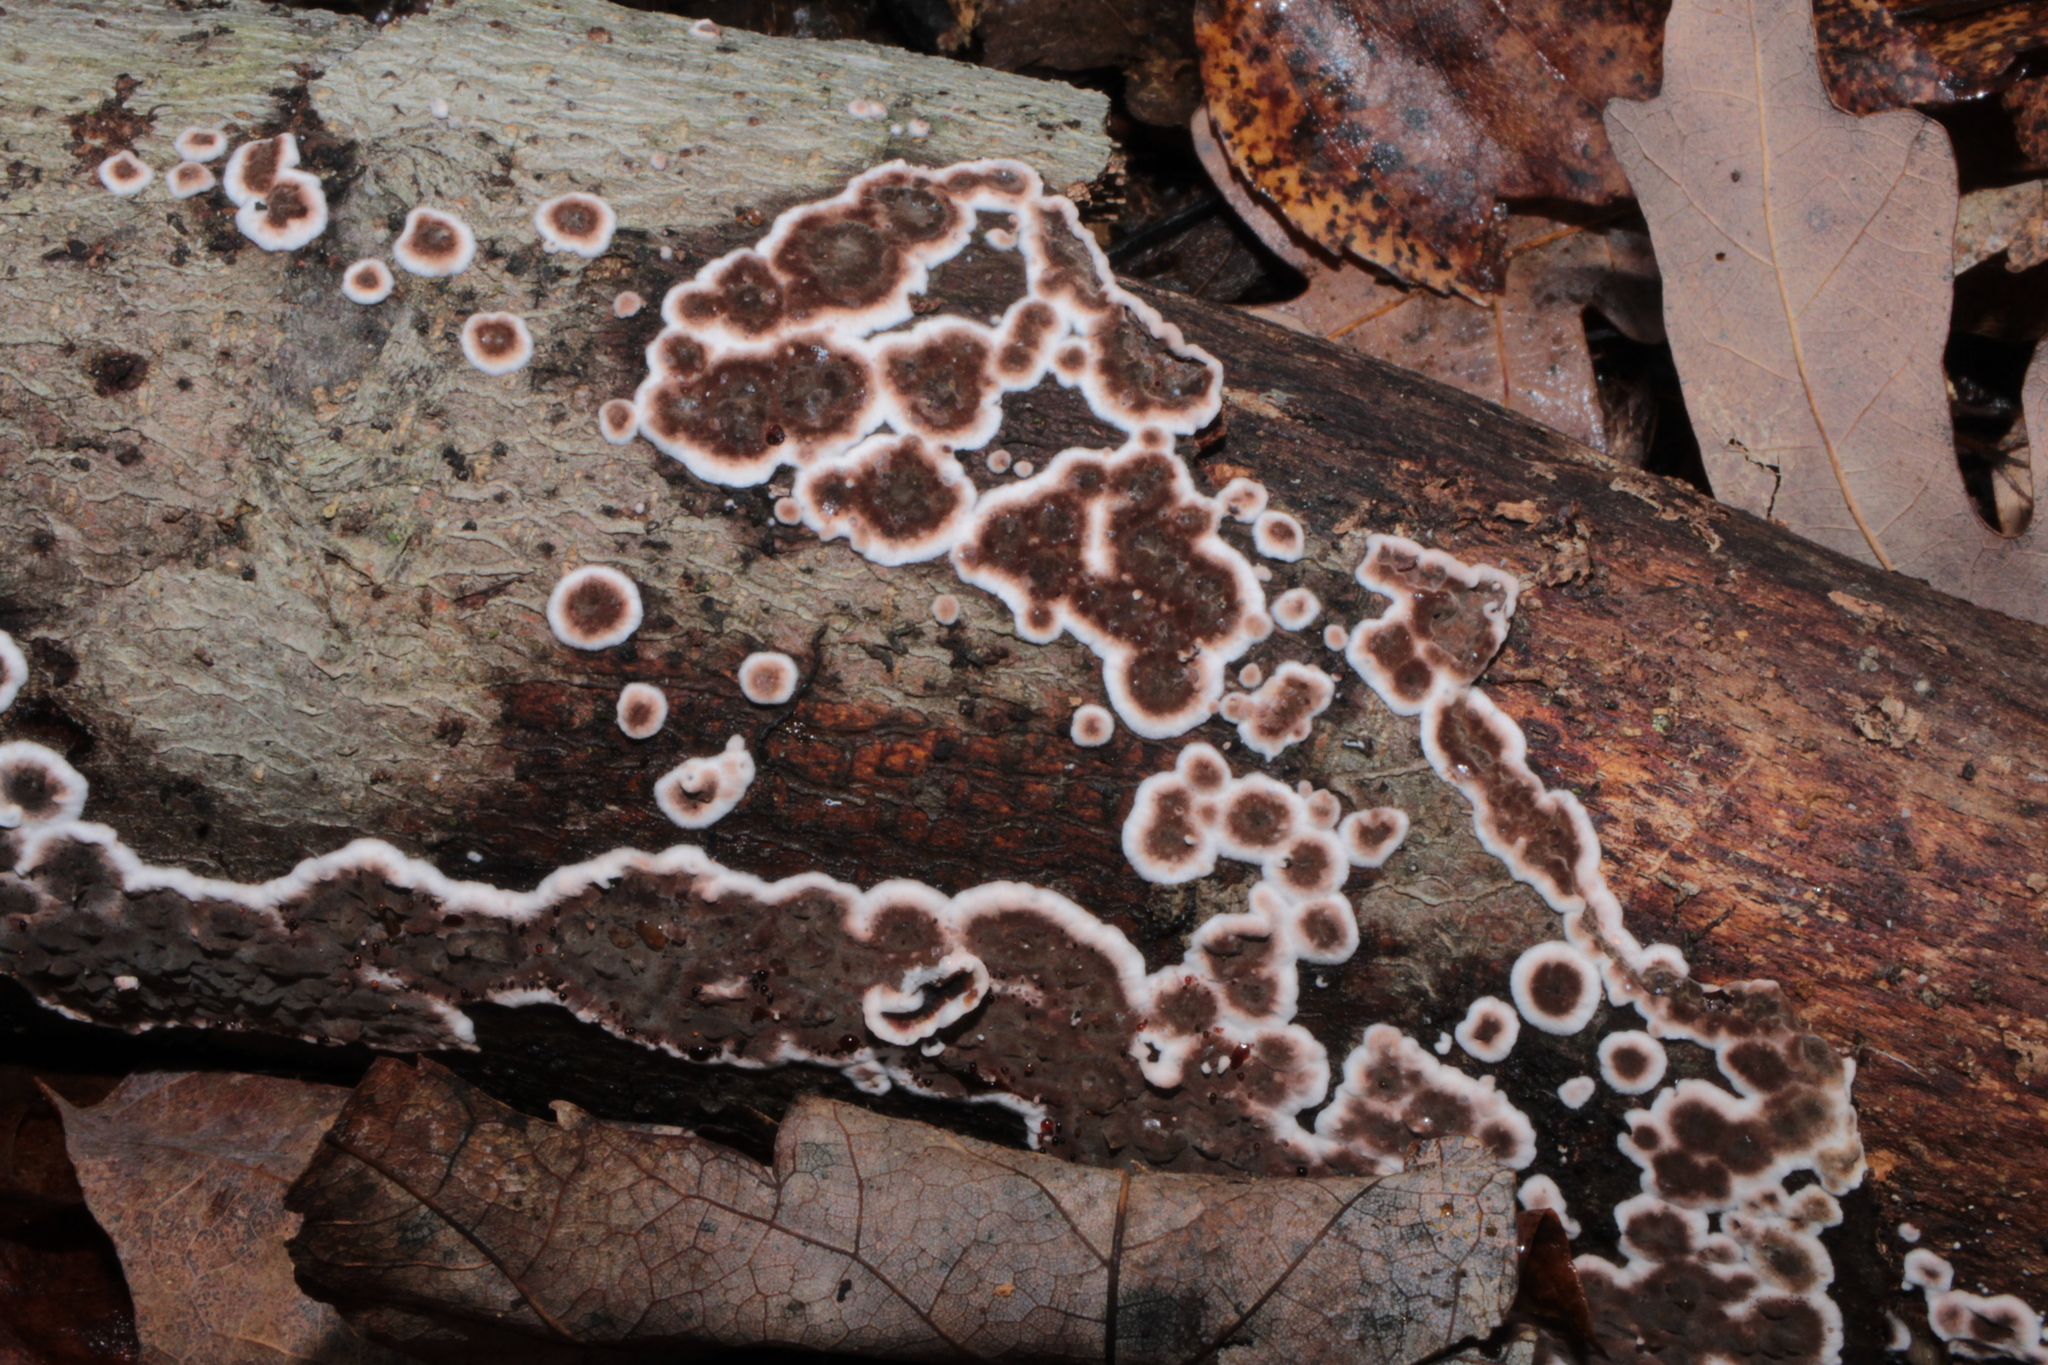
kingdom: Fungi
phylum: Basidiomycota
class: Agaricomycetes
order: Russulales
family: Peniophoraceae
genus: Peniophora
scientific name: Peniophora albobadia
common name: Giraffe spots
